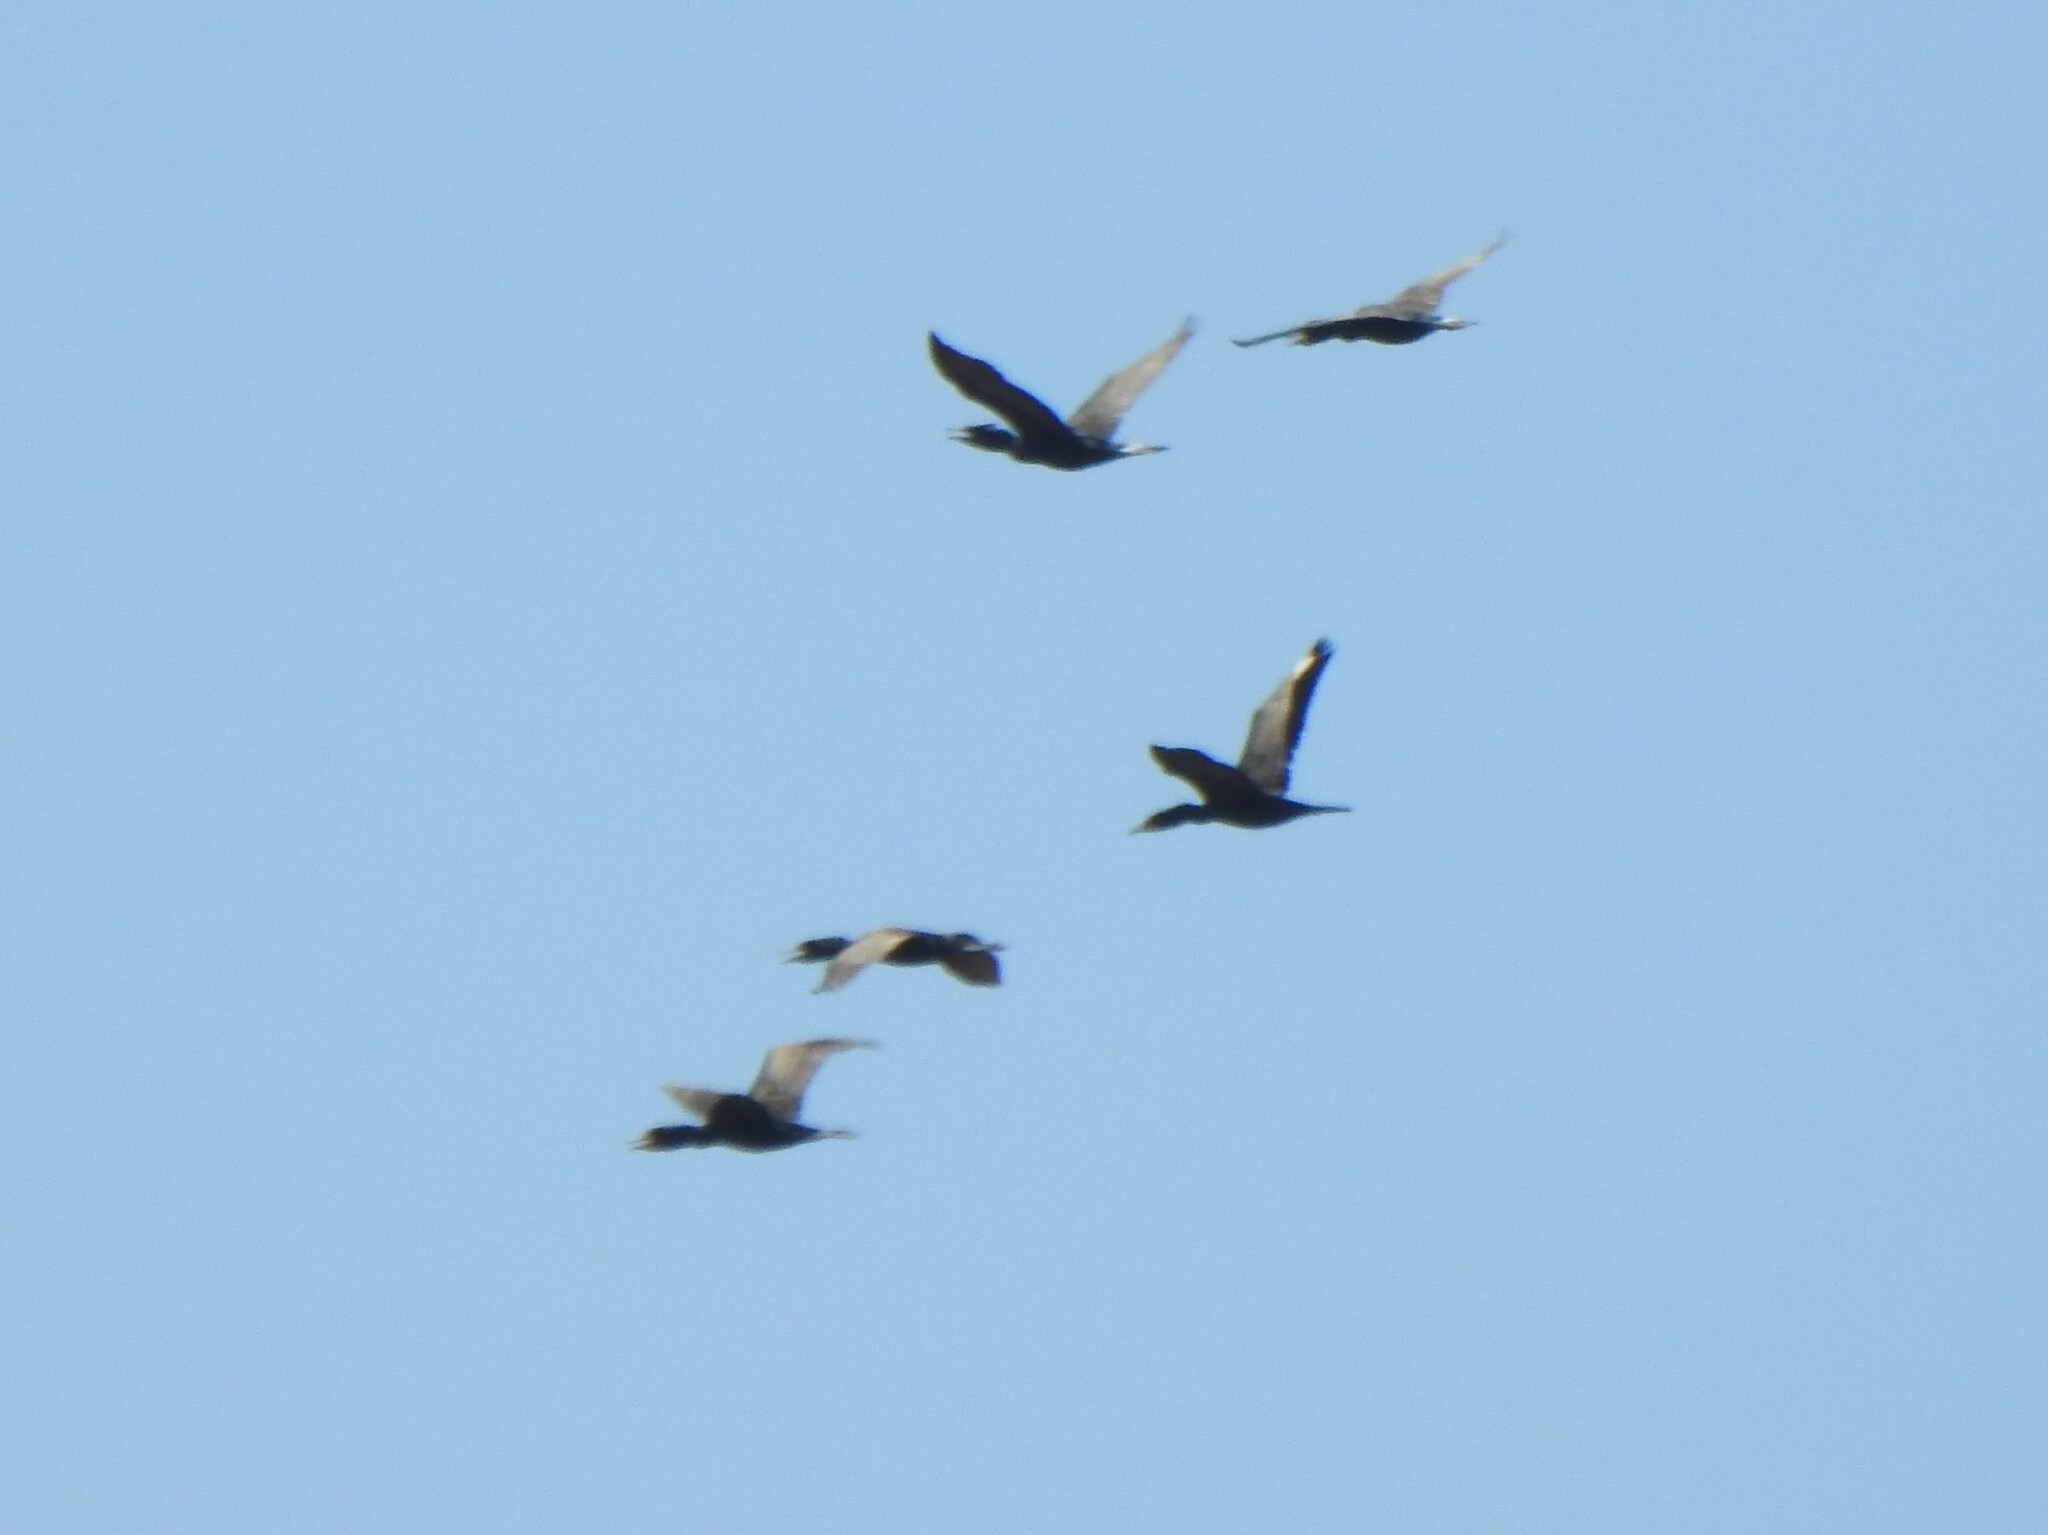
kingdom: Animalia
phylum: Chordata
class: Aves
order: Suliformes
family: Phalacrocoracidae
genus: Phalacrocorax
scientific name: Phalacrocorax auritus
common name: Double-crested cormorant
